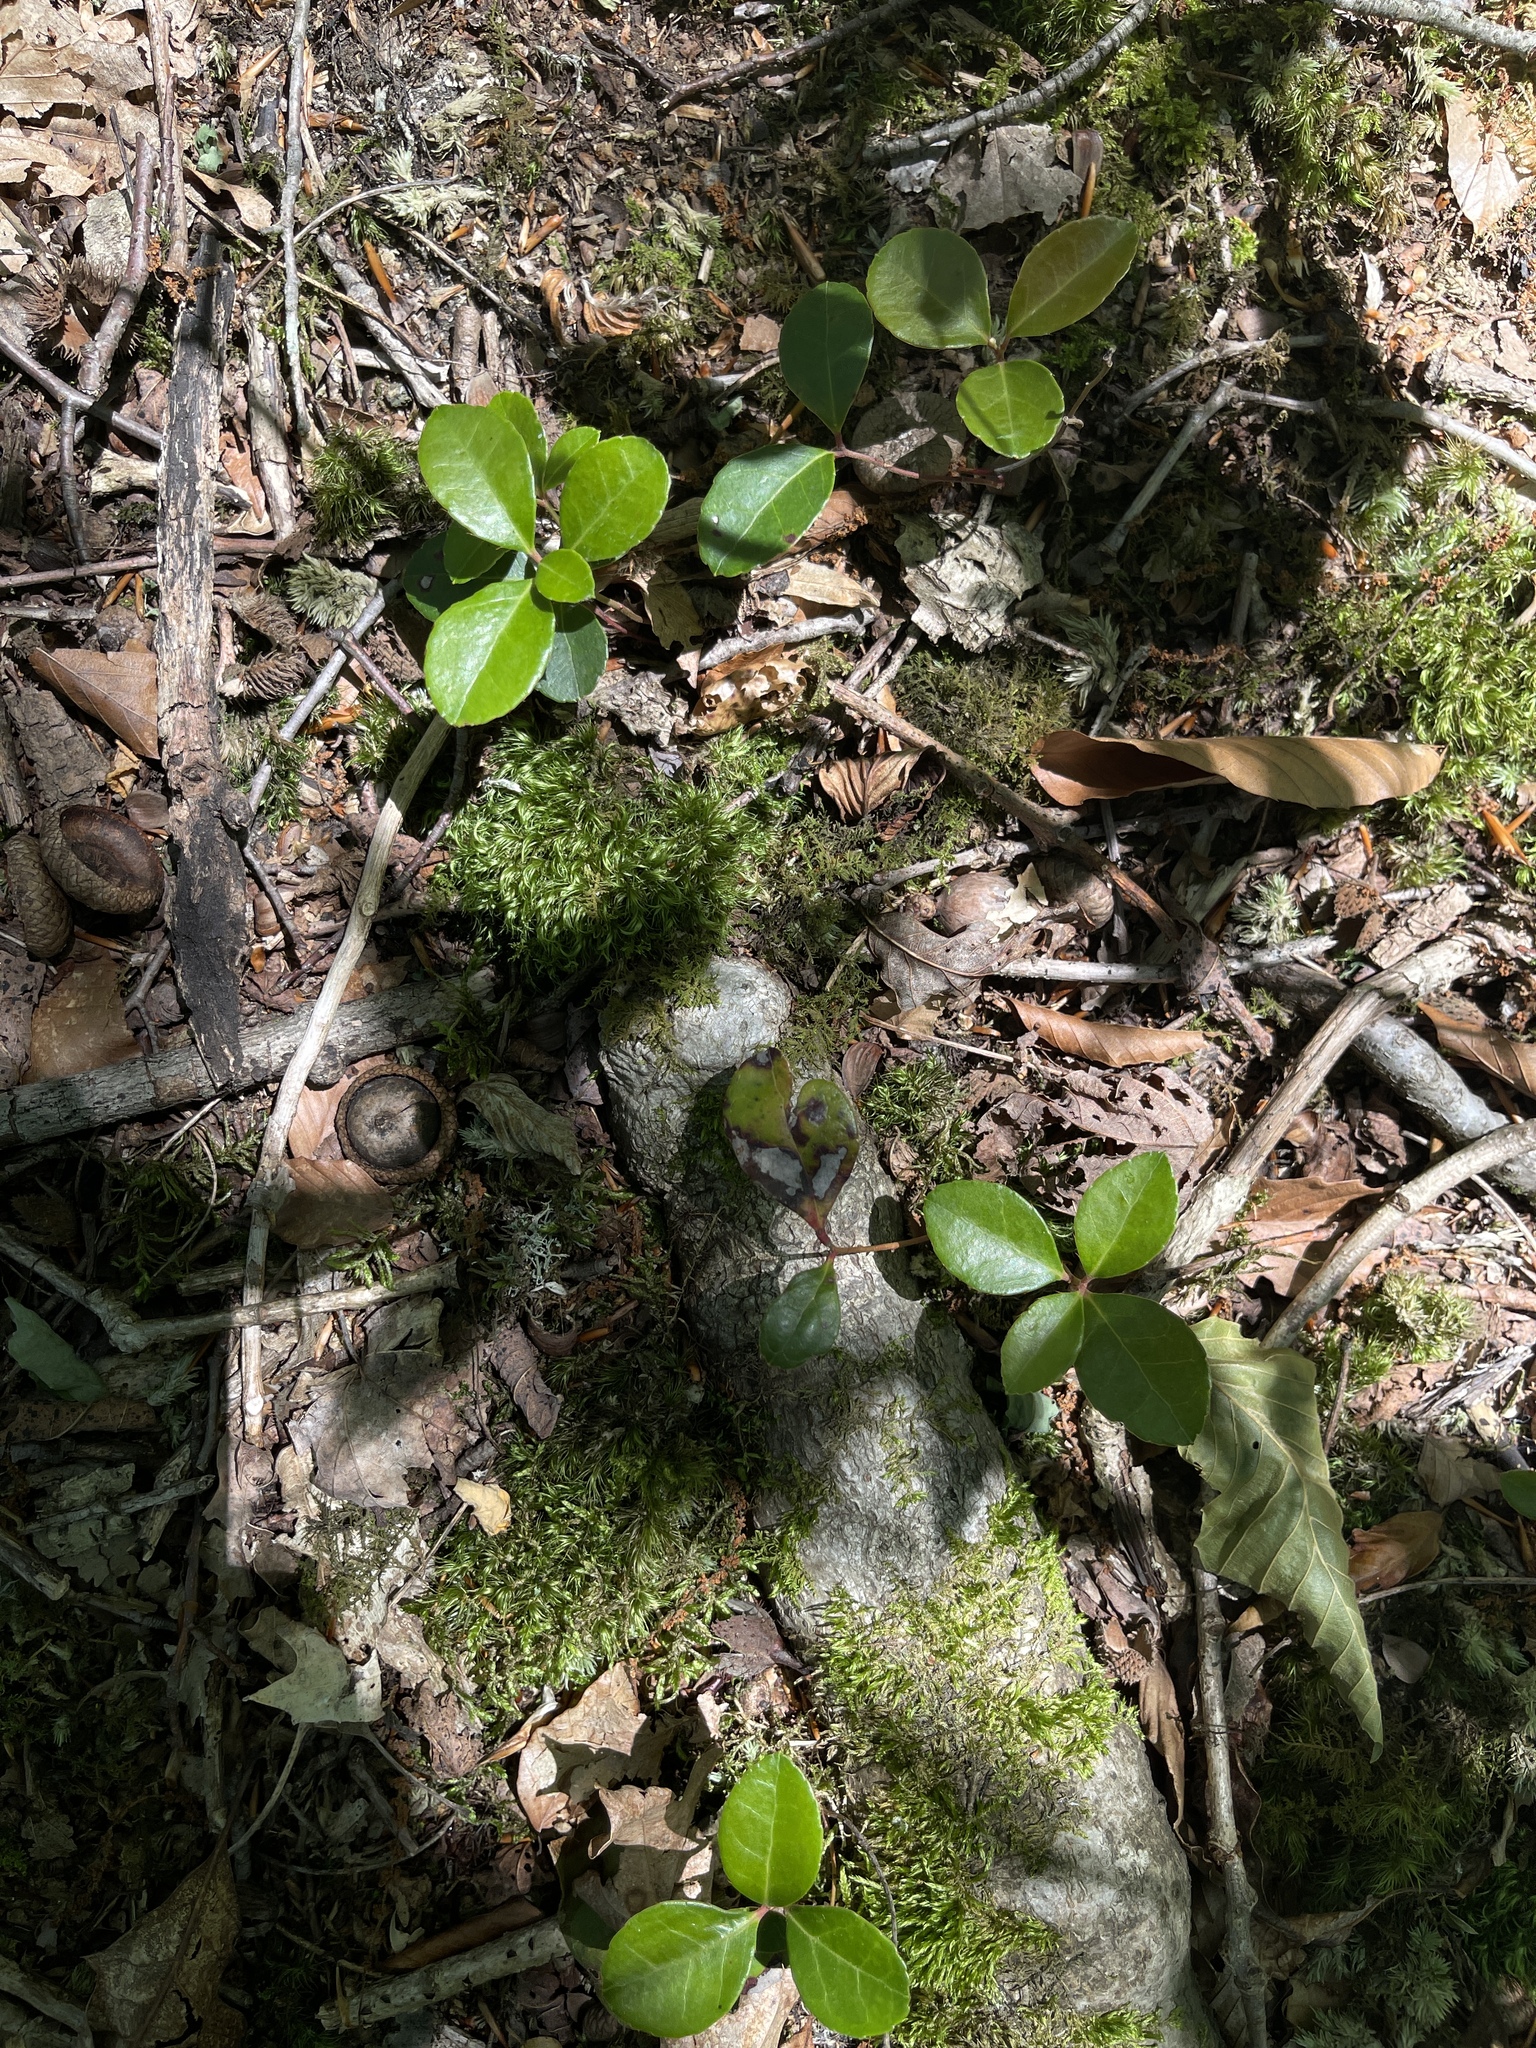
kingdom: Plantae
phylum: Tracheophyta
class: Magnoliopsida
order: Ericales
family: Ericaceae
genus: Gaultheria
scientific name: Gaultheria procumbens
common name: Checkerberry
